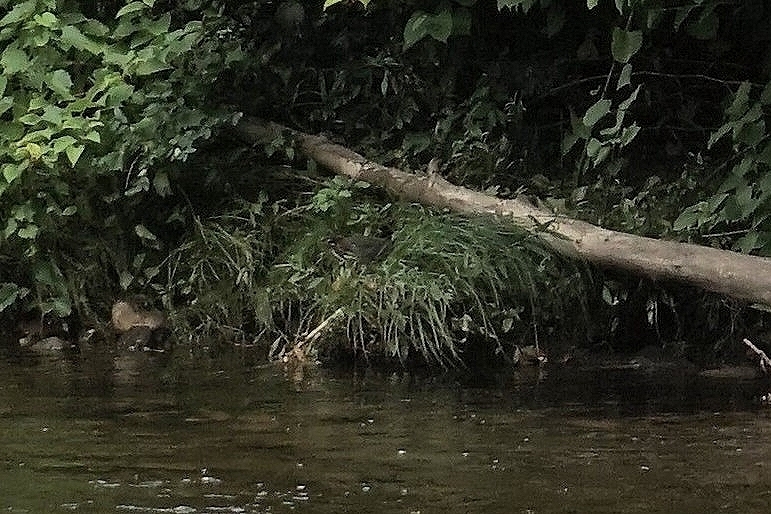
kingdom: Animalia
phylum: Chordata
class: Aves
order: Pelecaniformes
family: Ardeidae
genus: Butorides
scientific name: Butorides virescens
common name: Green heron
